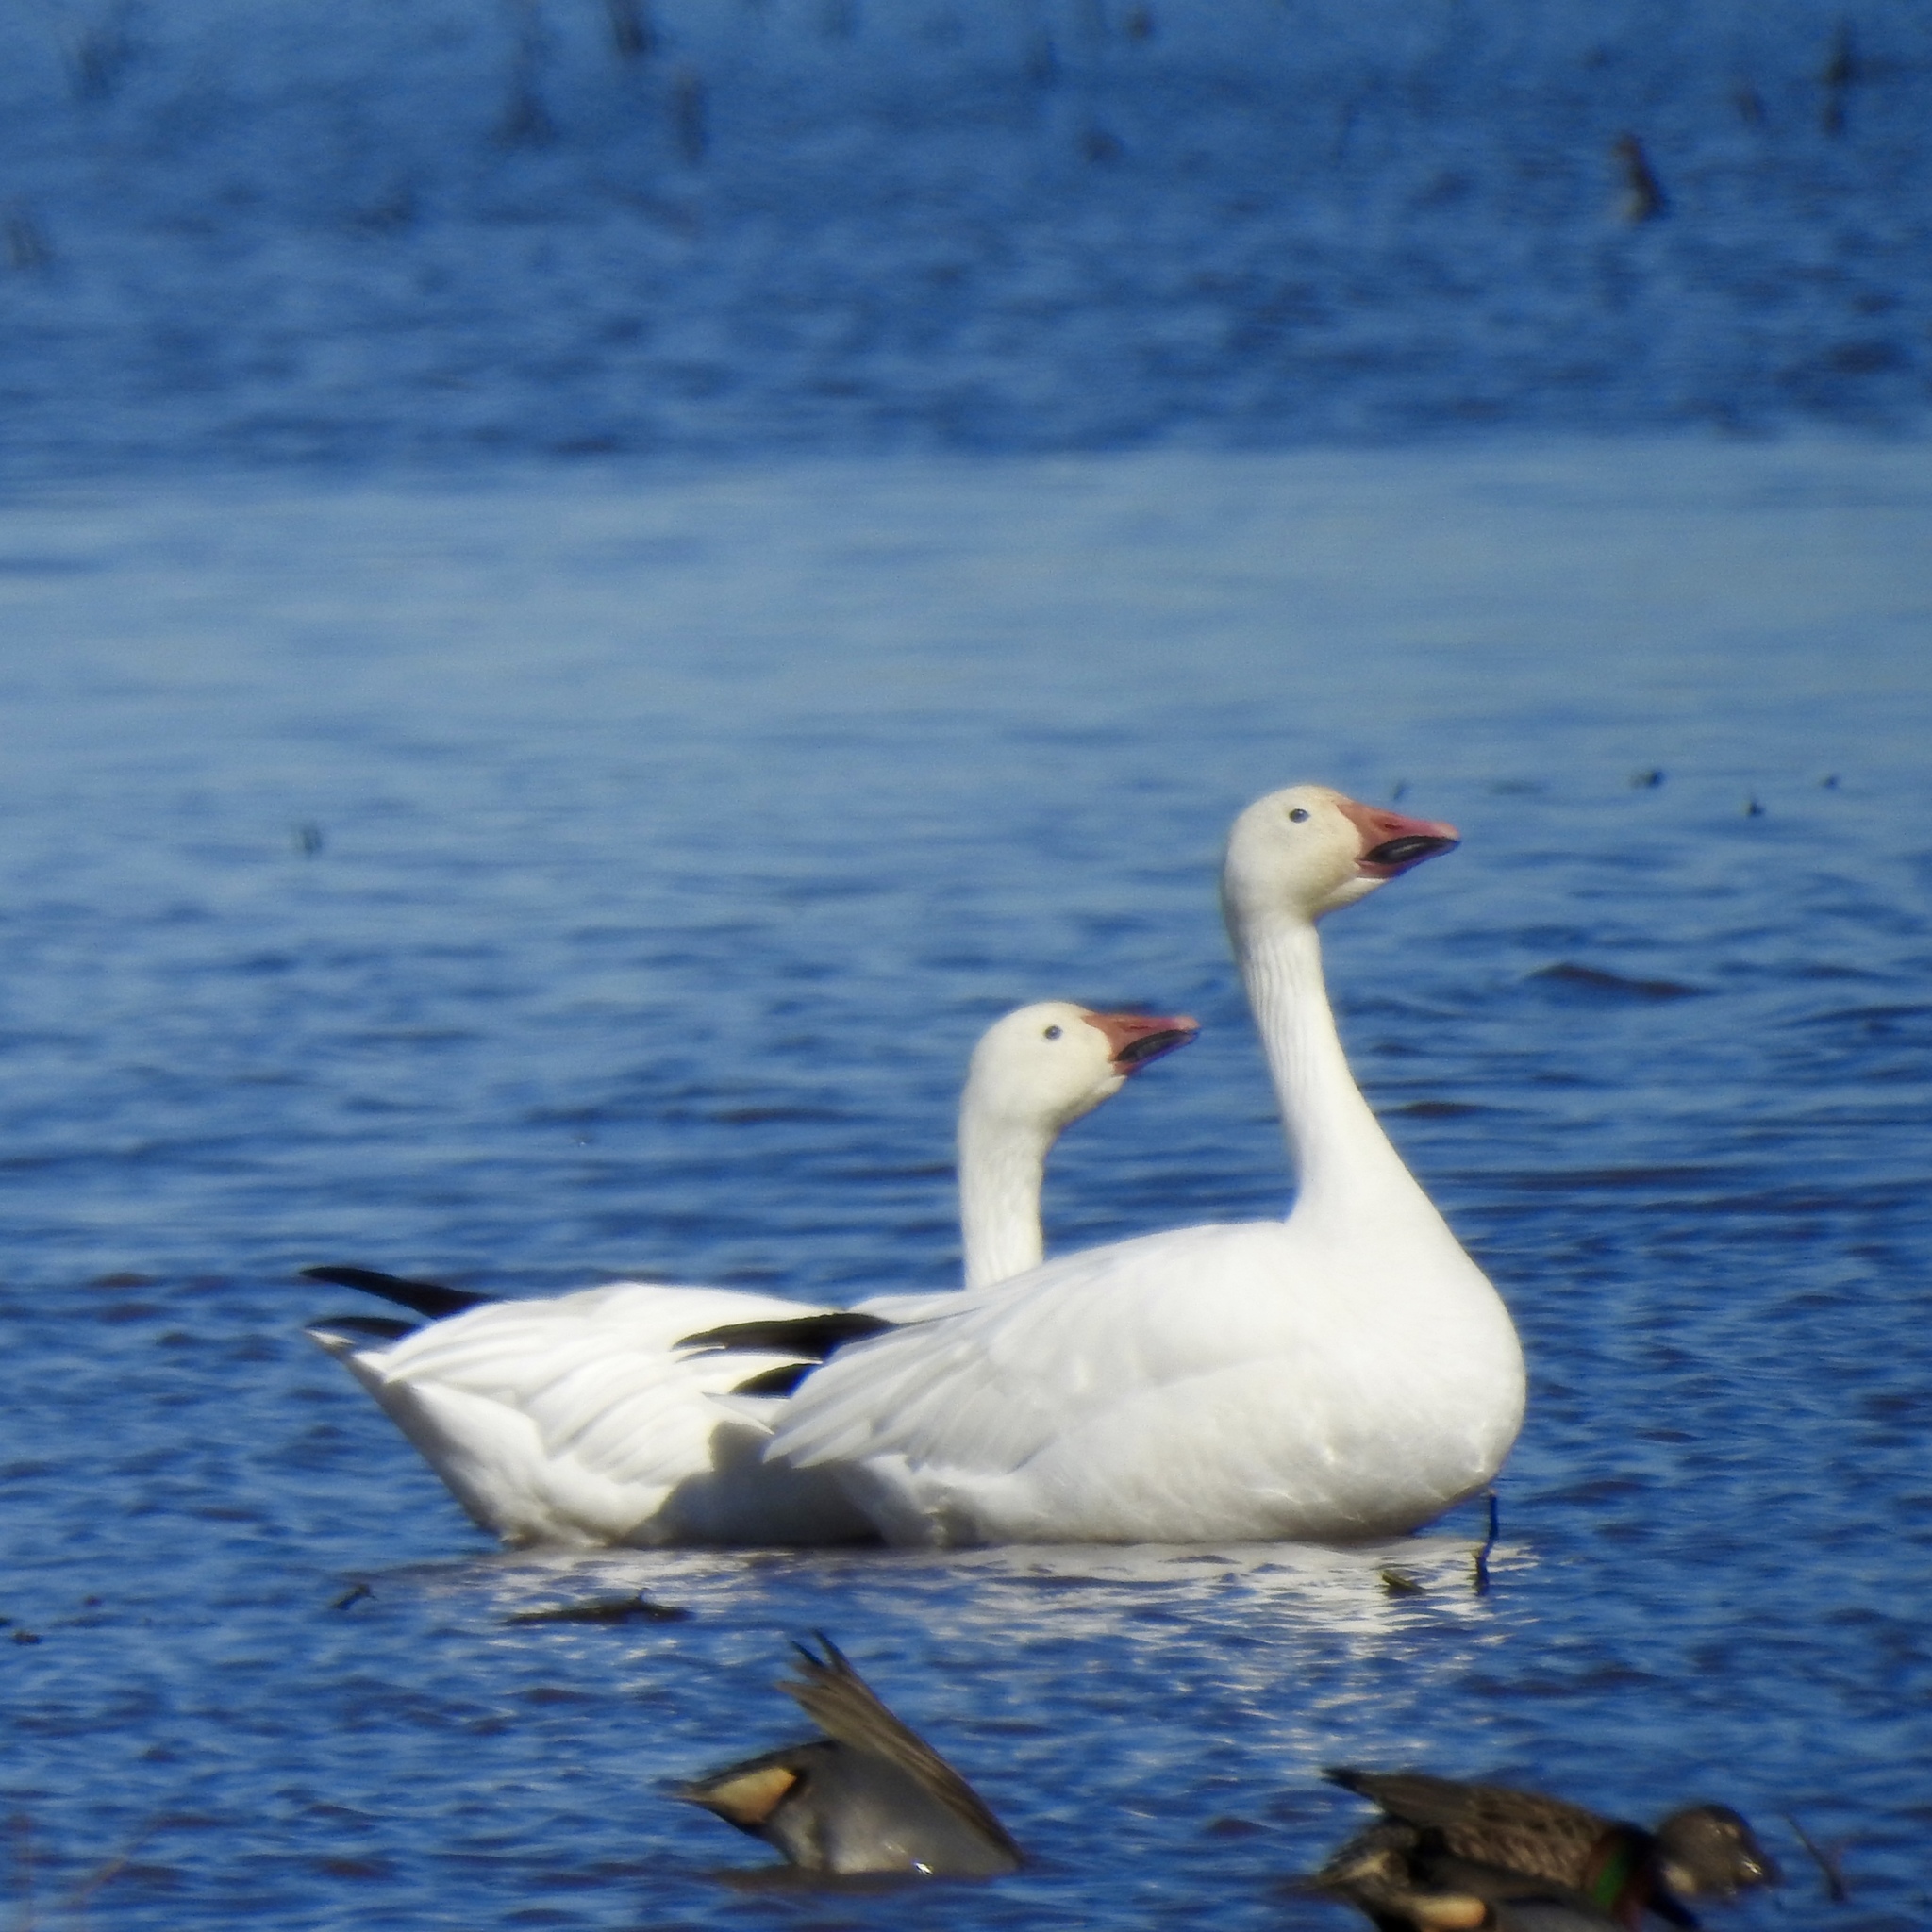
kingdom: Animalia
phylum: Chordata
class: Aves
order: Anseriformes
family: Anatidae
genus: Anser
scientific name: Anser caerulescens
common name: Snow goose
